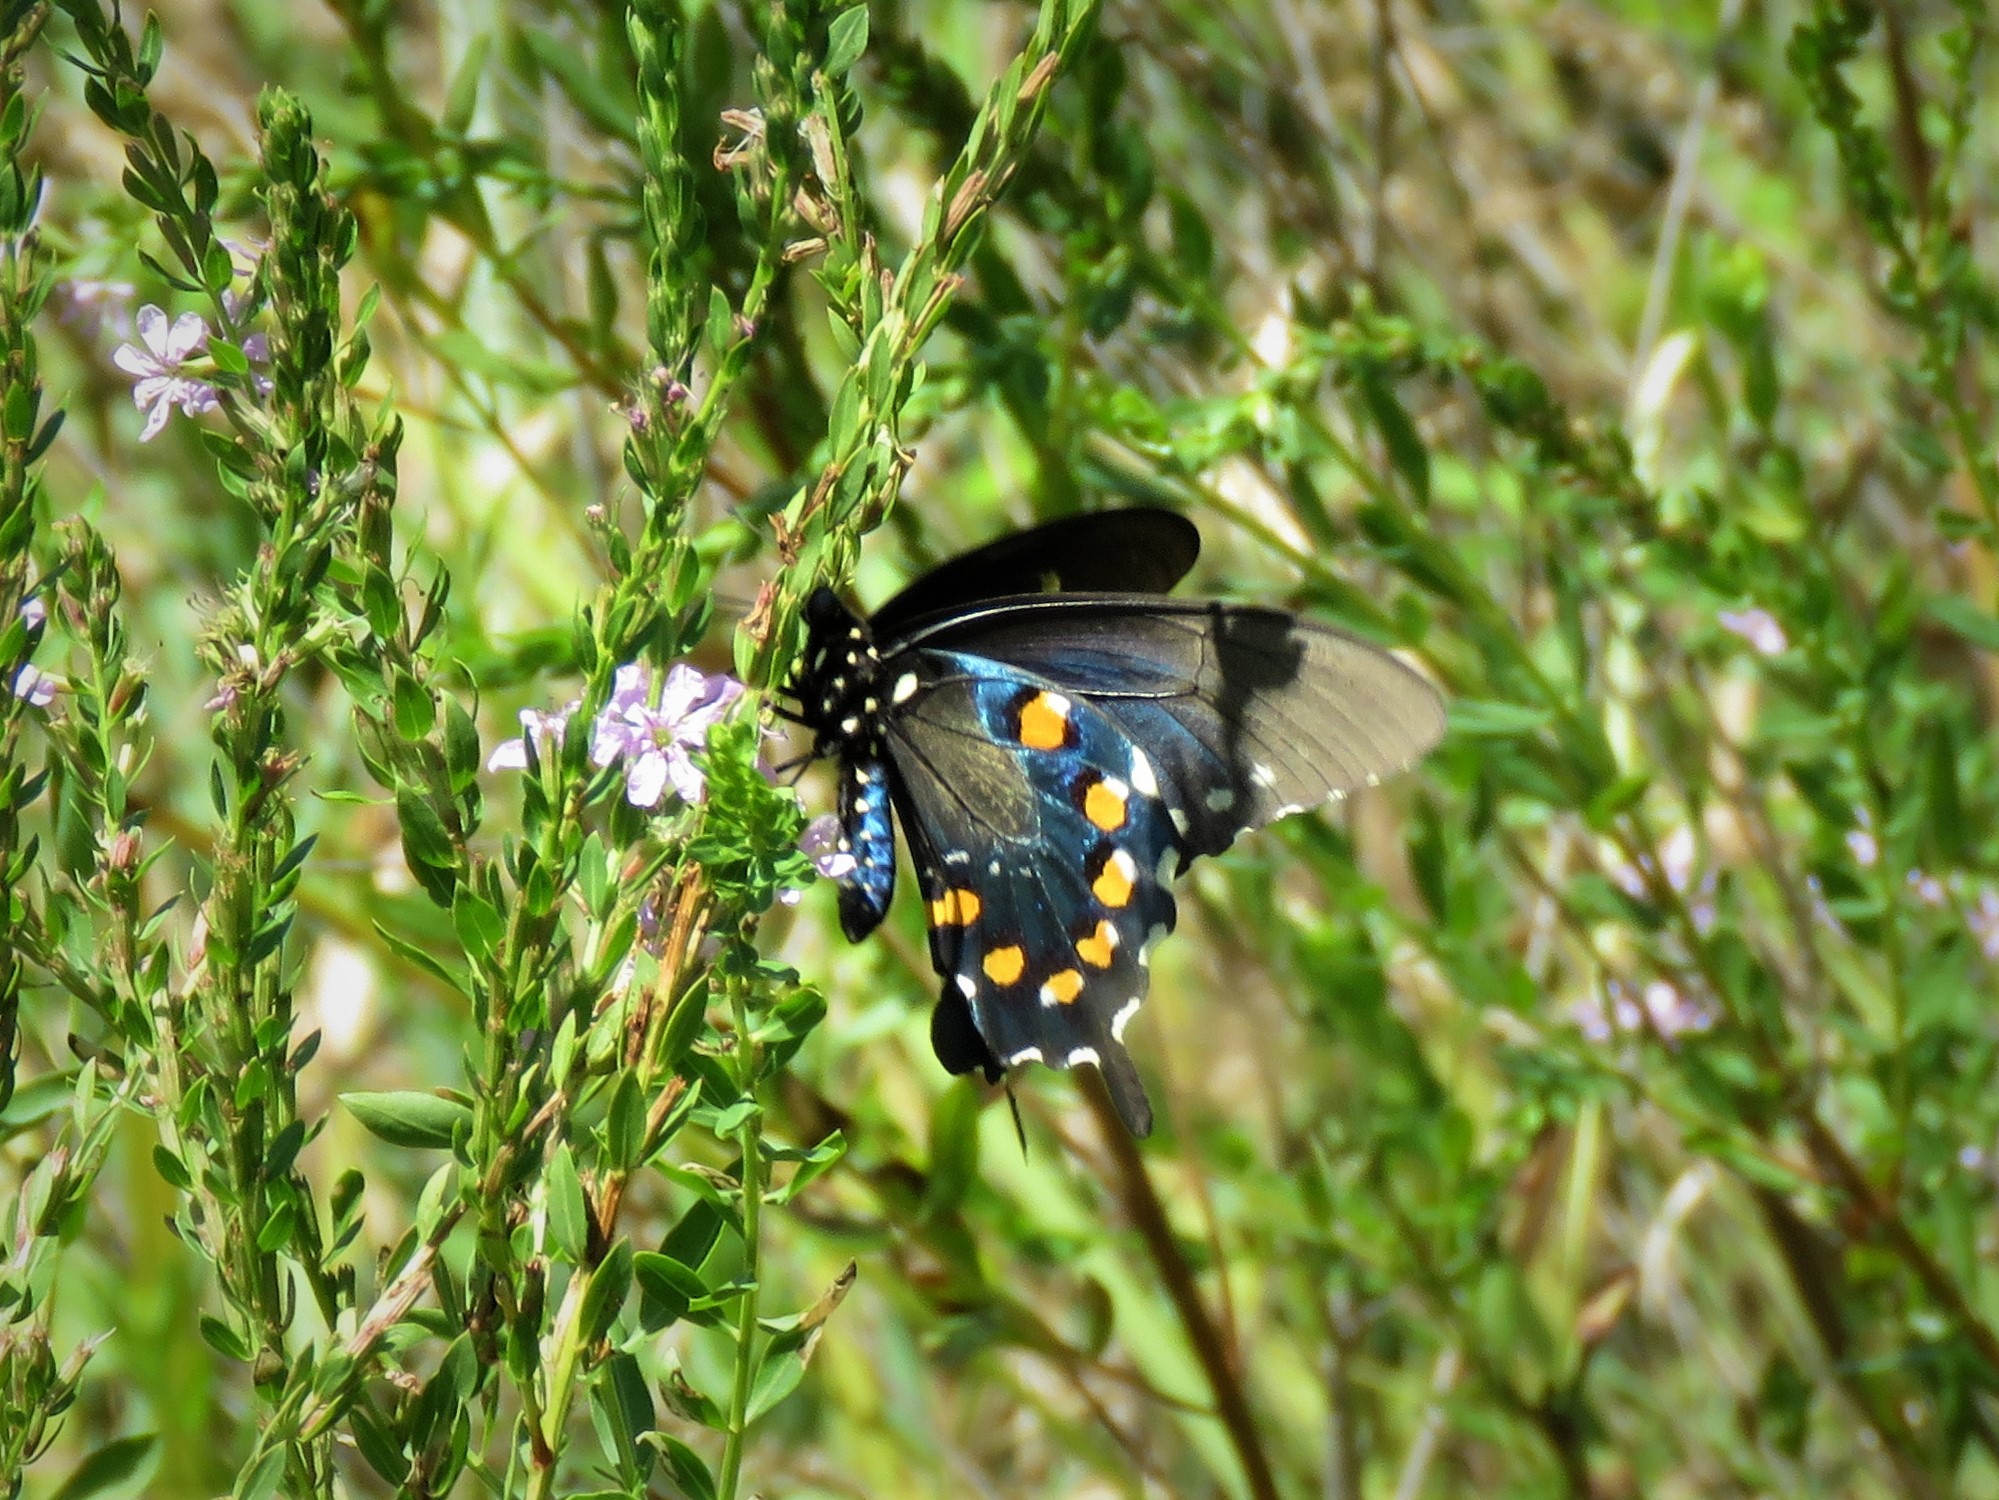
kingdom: Animalia
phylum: Arthropoda
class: Insecta
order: Lepidoptera
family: Papilionidae
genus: Battus
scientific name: Battus philenor
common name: Pipevine swallowtail
